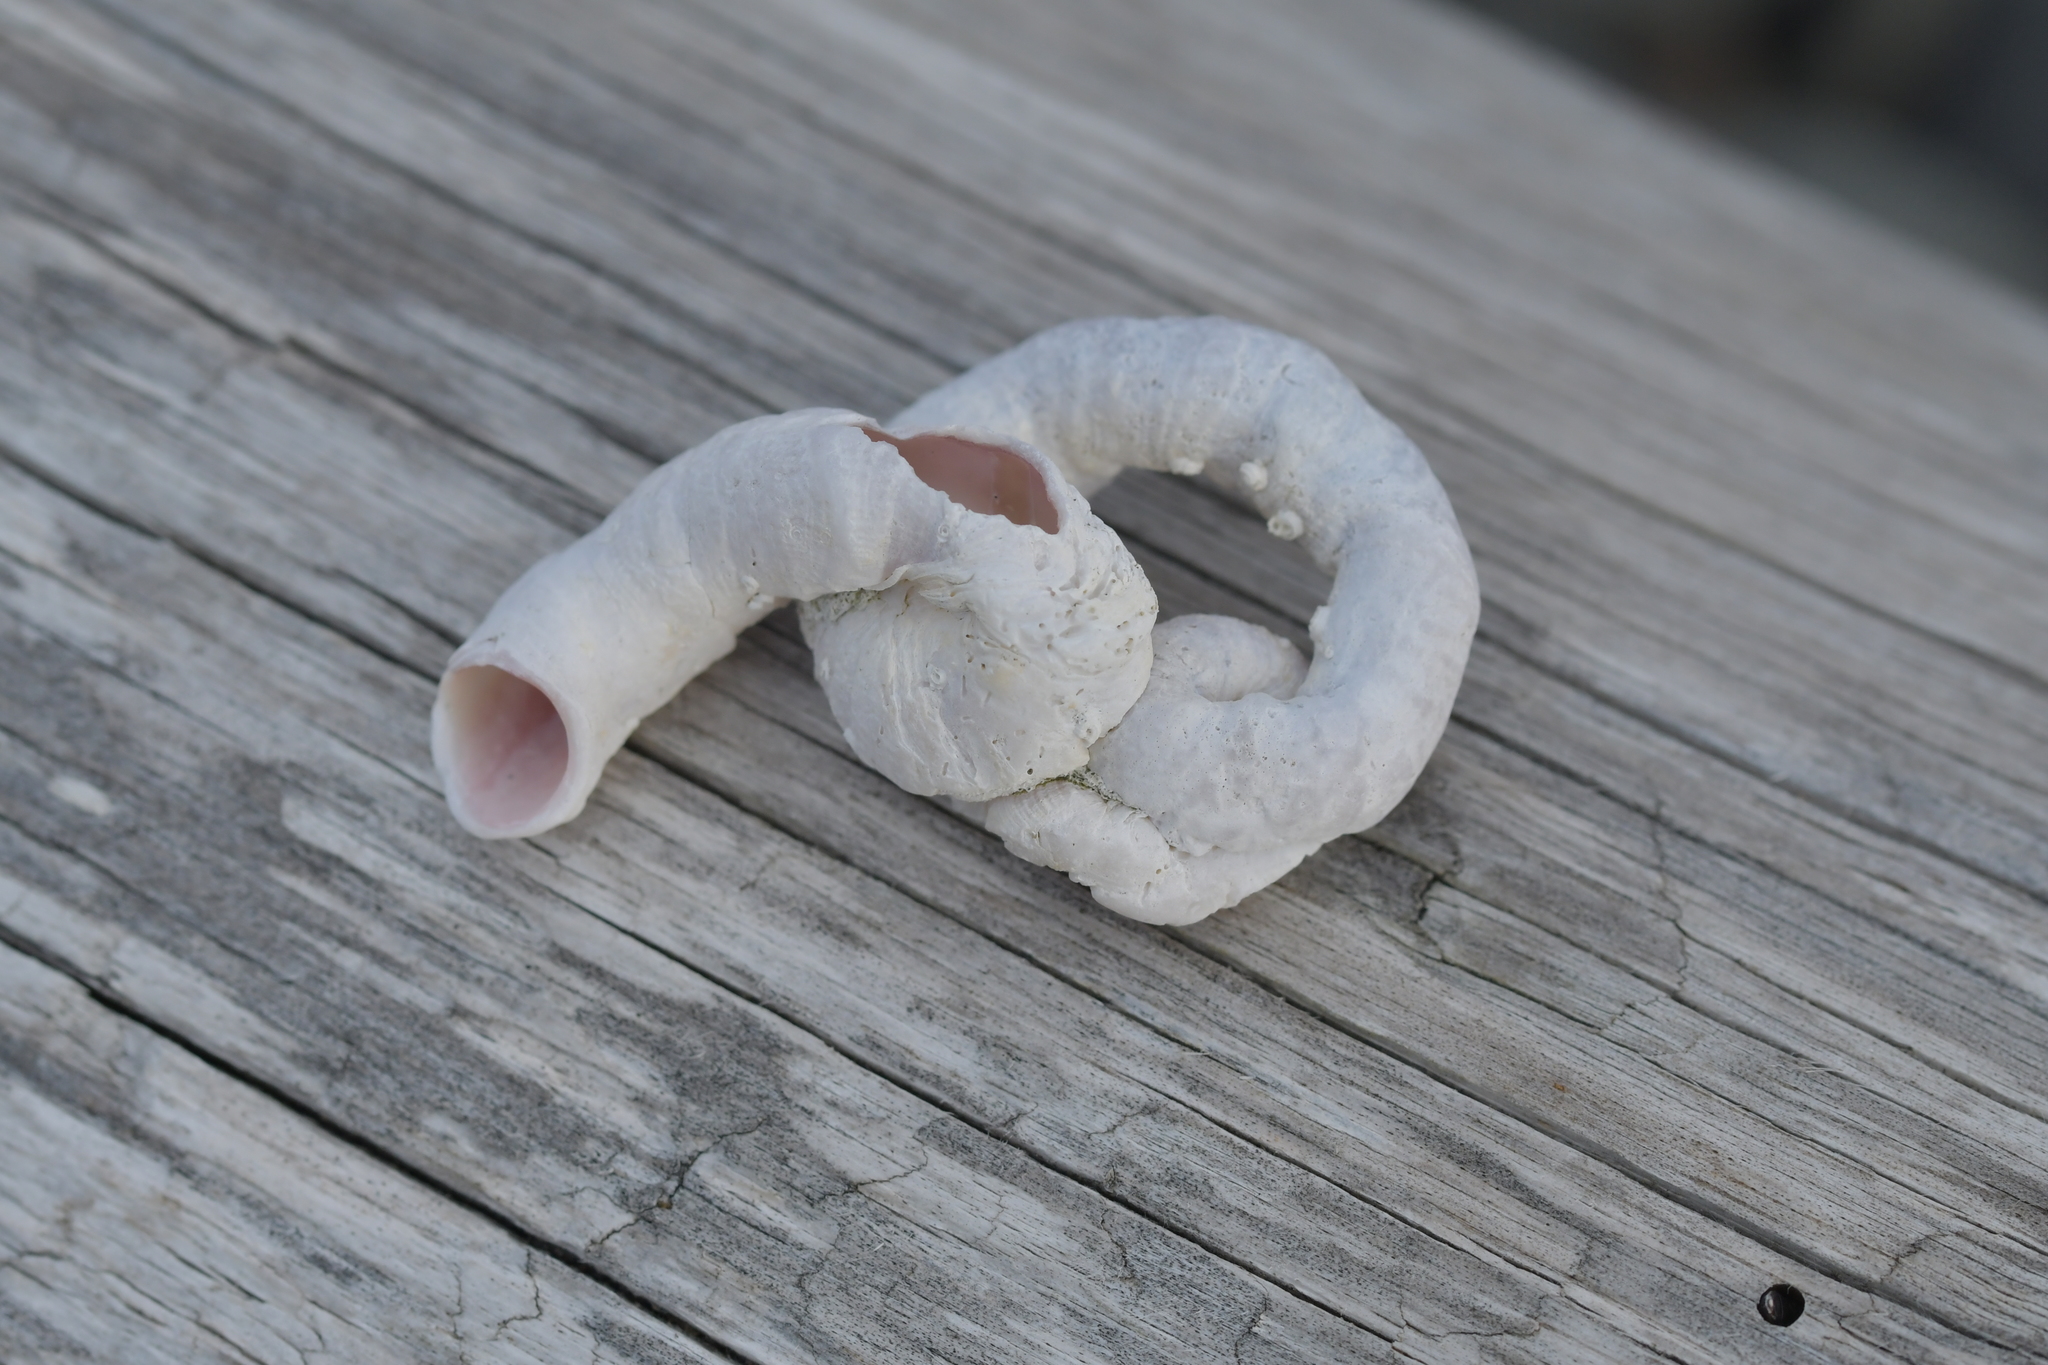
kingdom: Animalia
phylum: Mollusca
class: Gastropoda
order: Littorinimorpha
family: Vermetidae
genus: Thylacodes
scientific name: Thylacodes zelandicus
